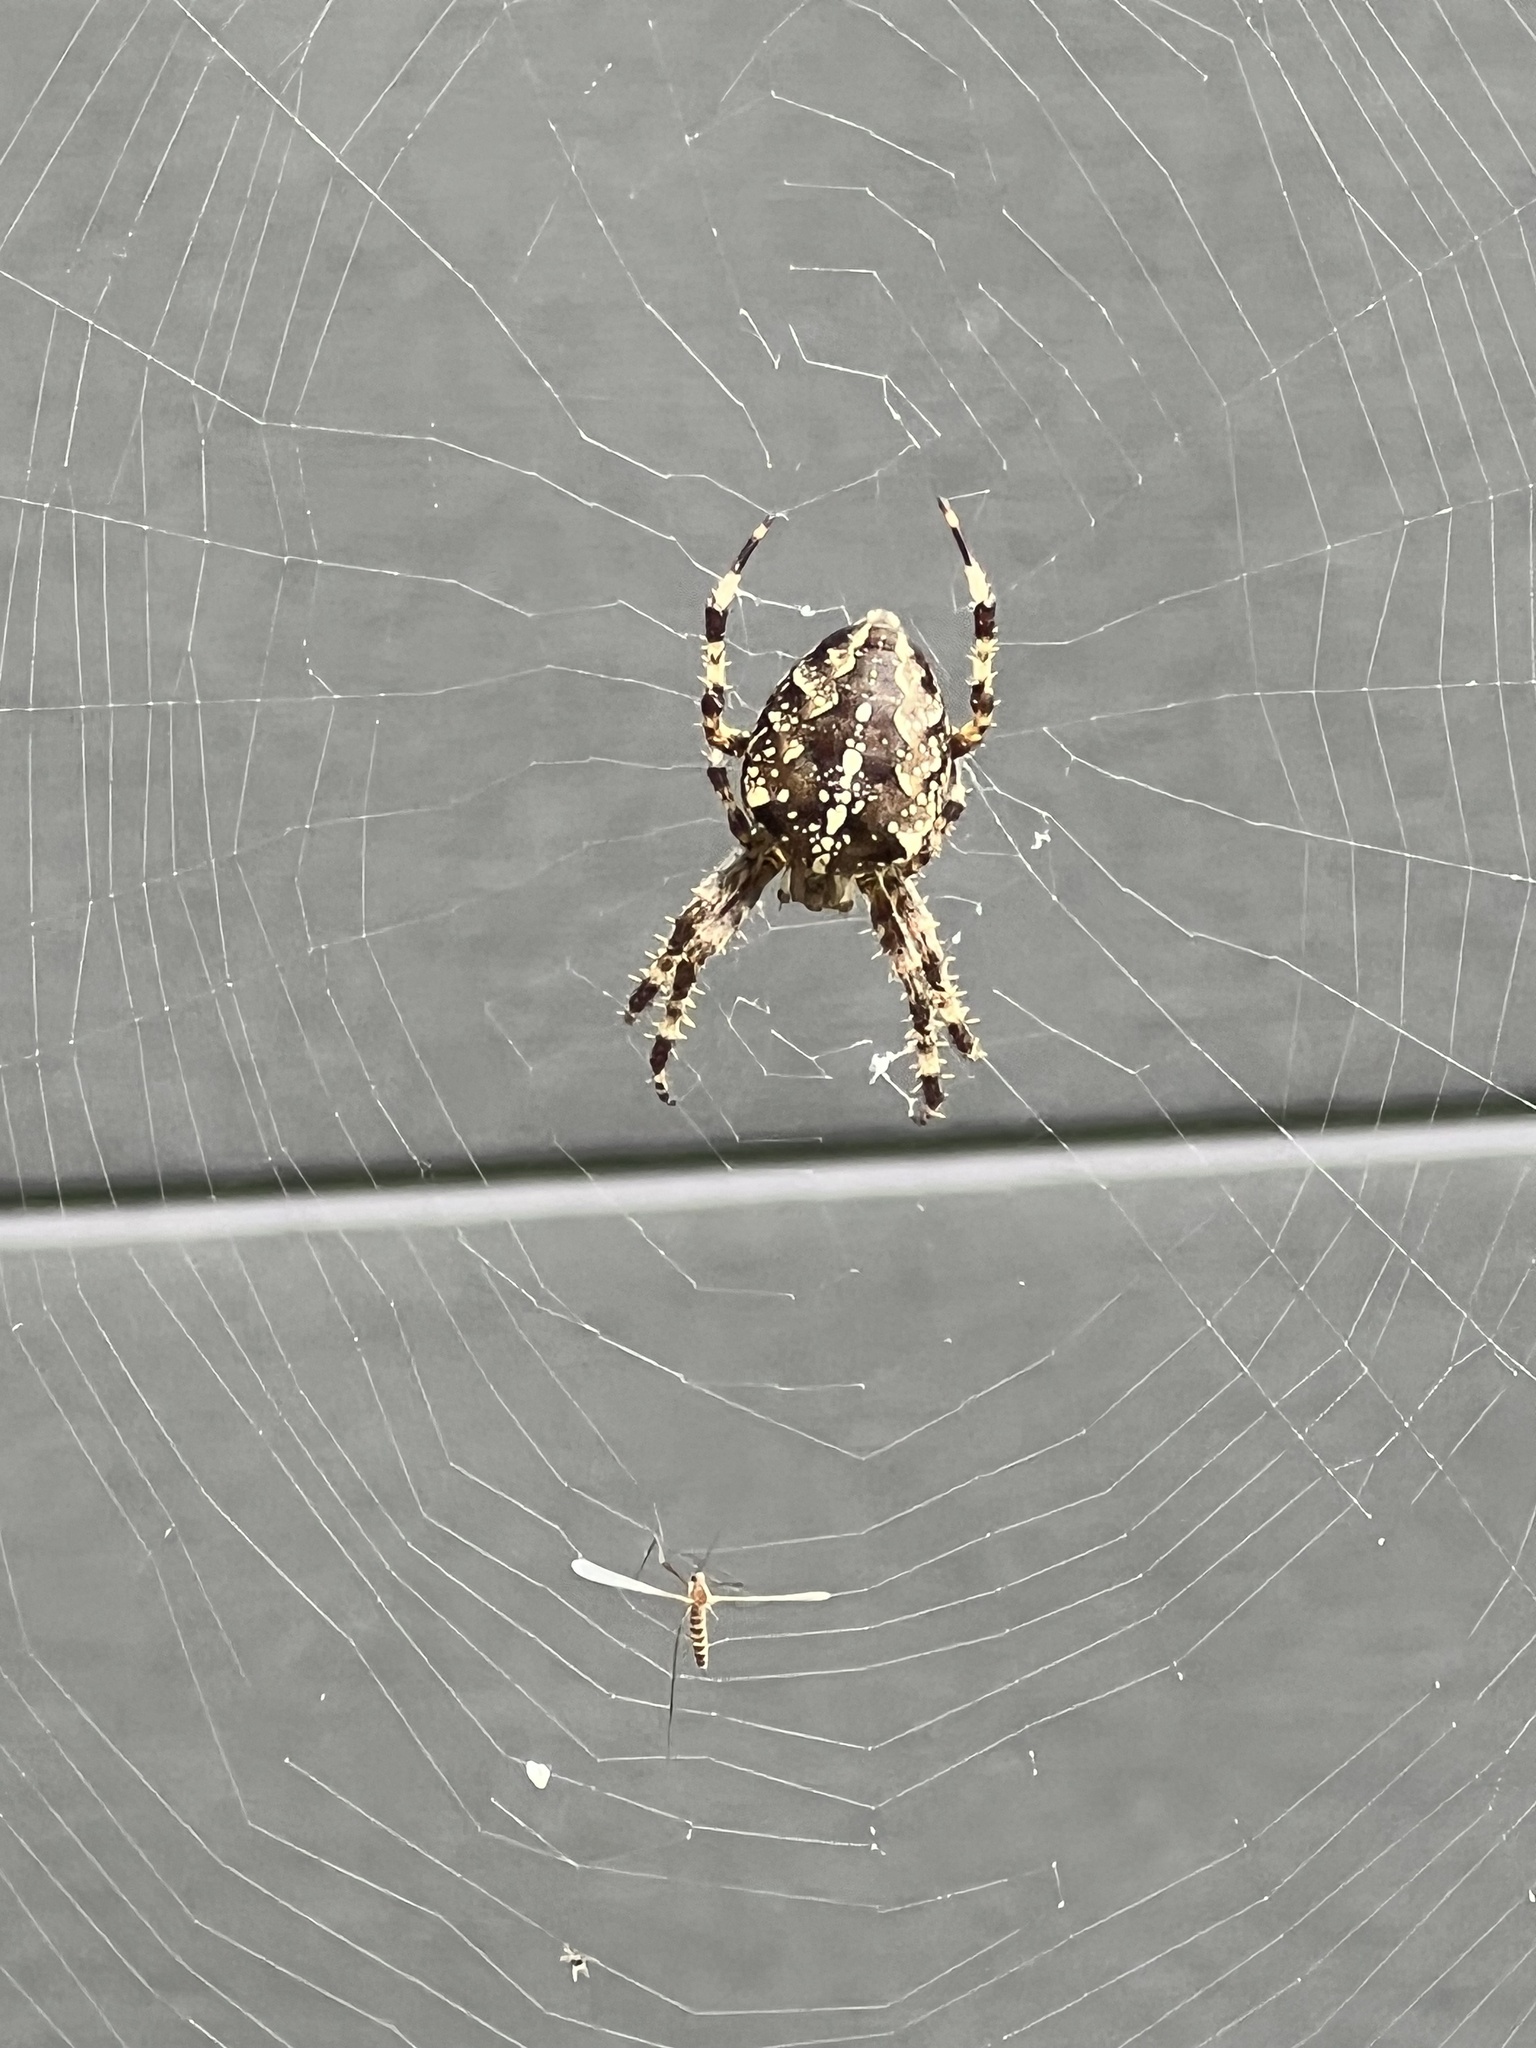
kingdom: Animalia
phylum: Arthropoda
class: Arachnida
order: Araneae
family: Araneidae
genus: Araneus
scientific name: Araneus diadematus
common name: Cross orbweaver
